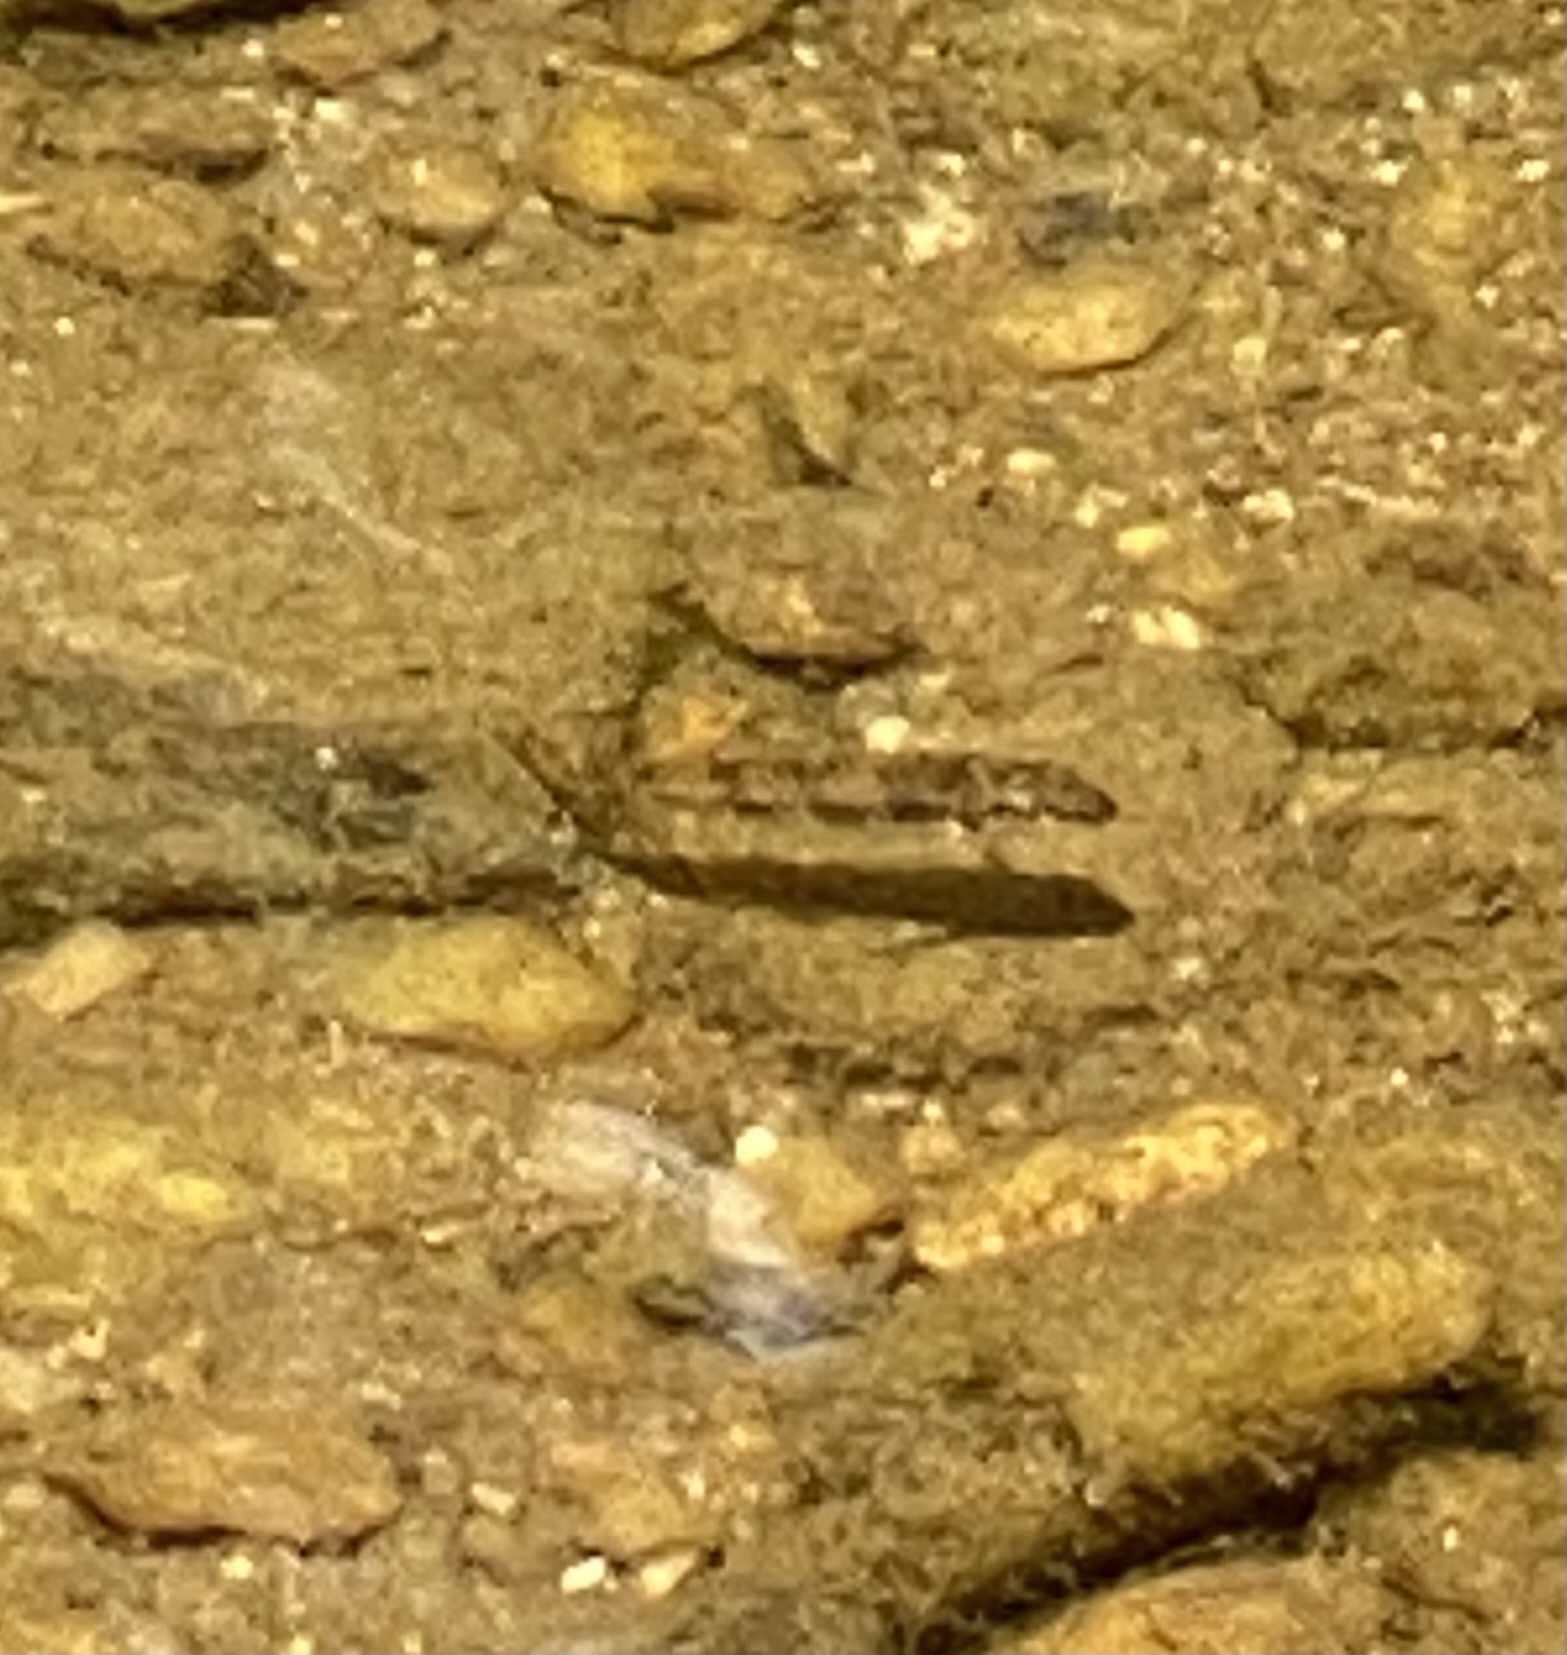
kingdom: Animalia
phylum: Chordata
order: Cypriniformes
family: Catostomidae
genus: Hypentelium
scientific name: Hypentelium nigricans
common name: Northern hog sucker
